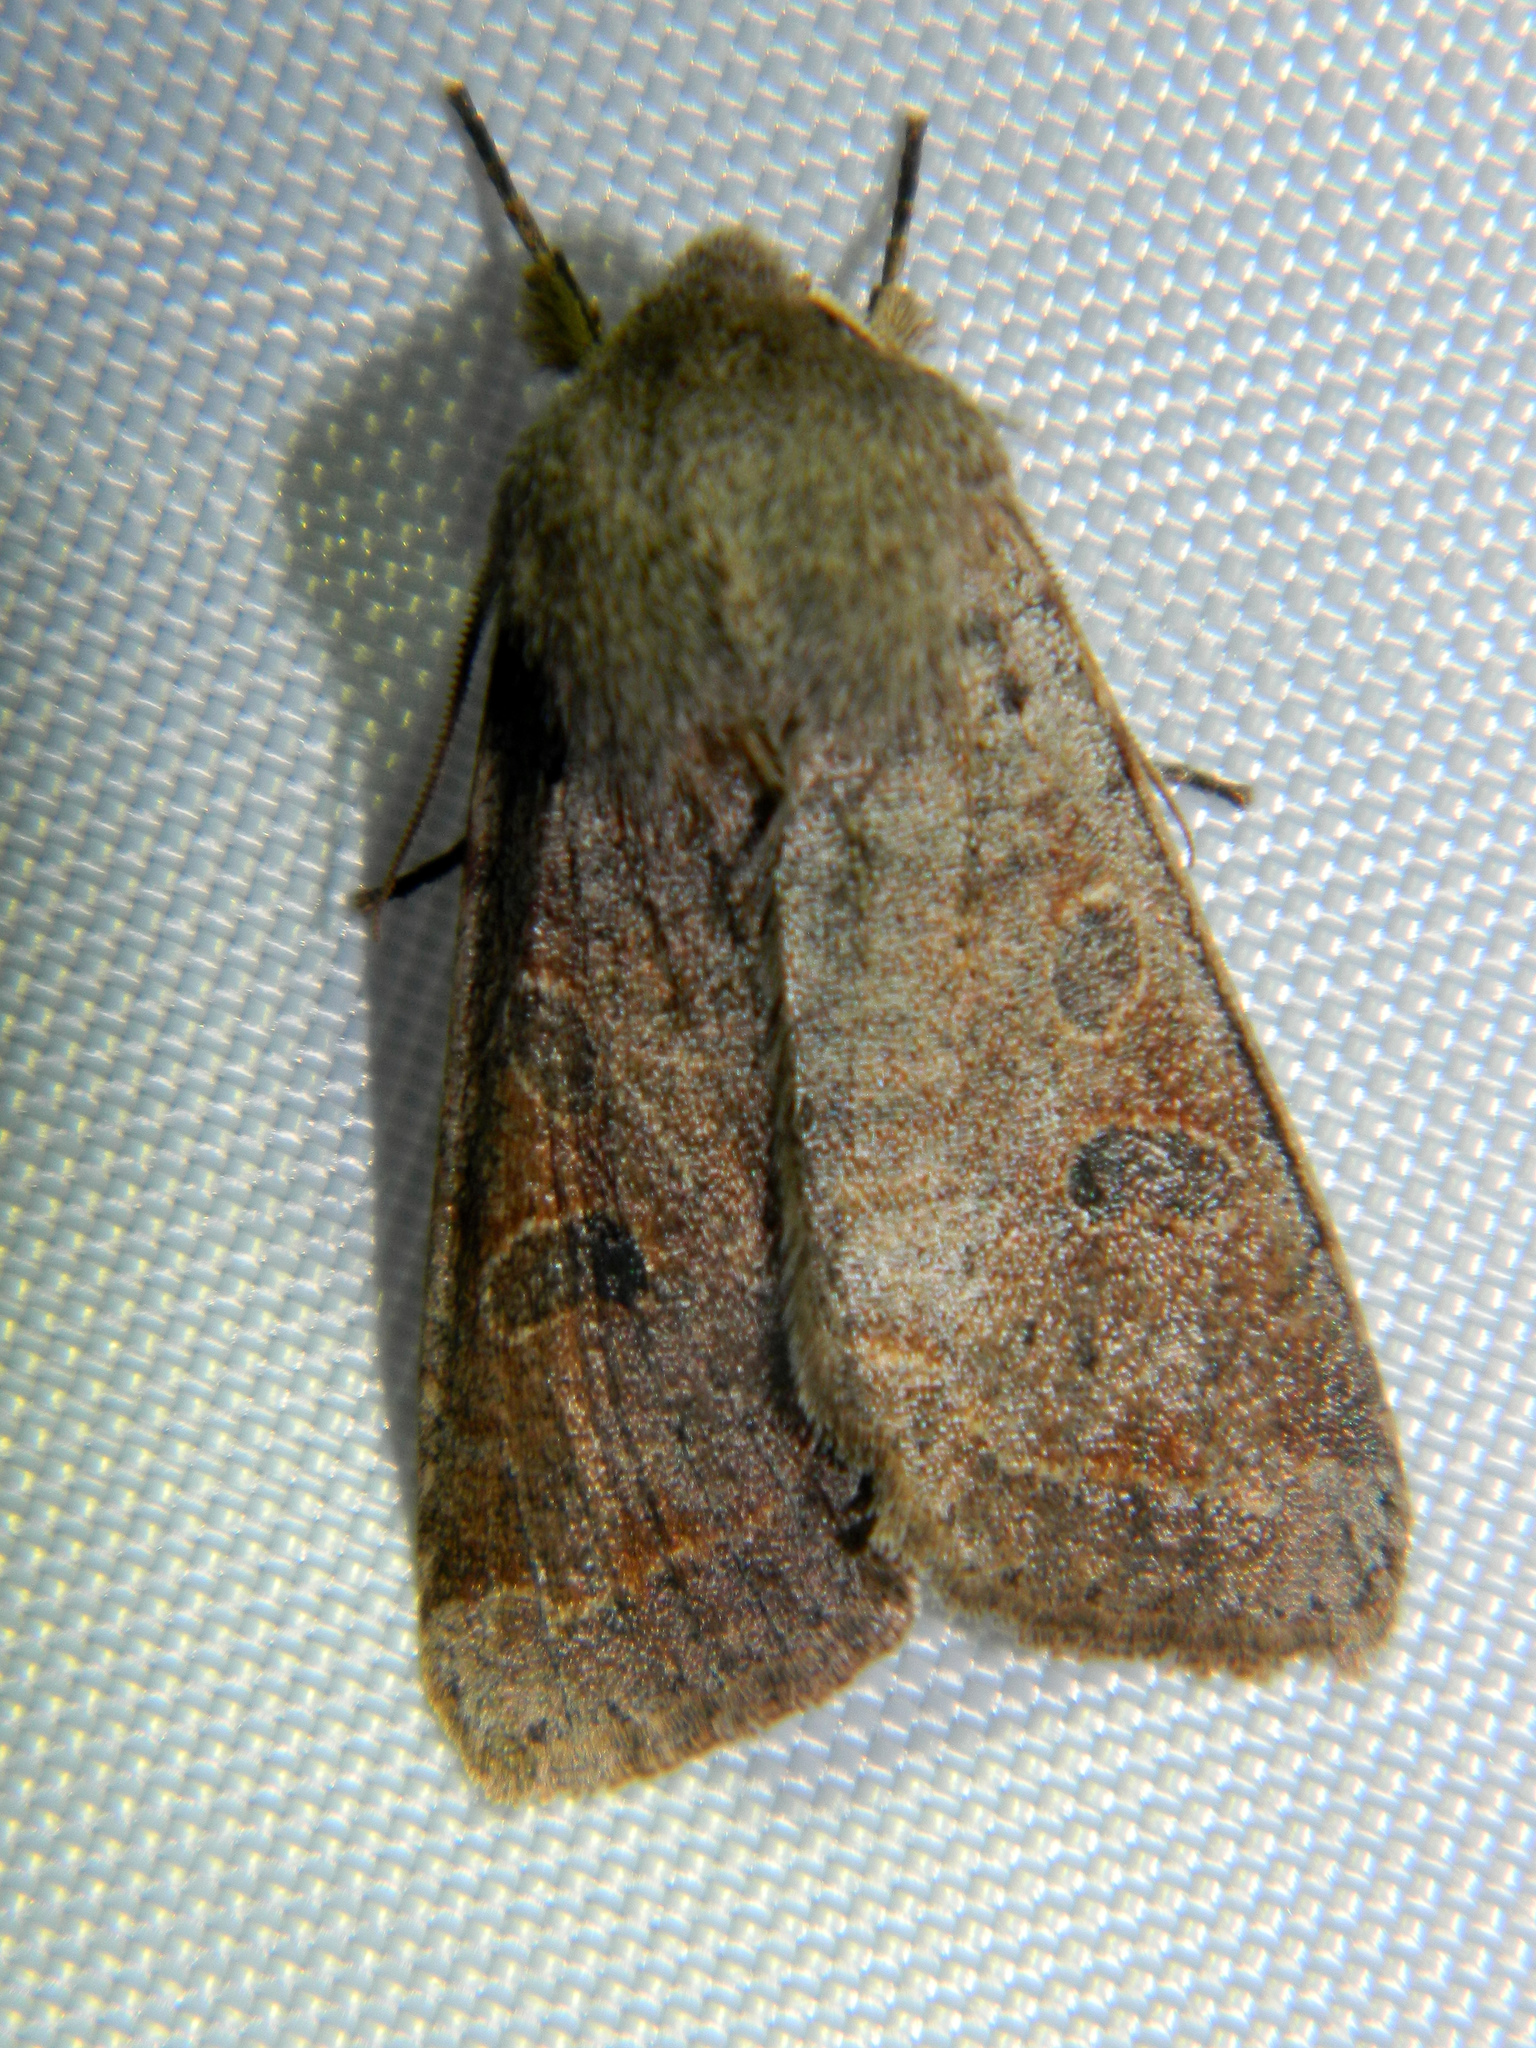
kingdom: Animalia
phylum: Arthropoda
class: Insecta
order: Lepidoptera
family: Noctuidae
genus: Orthosia
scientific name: Orthosia hibisci
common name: Green fruitworm
